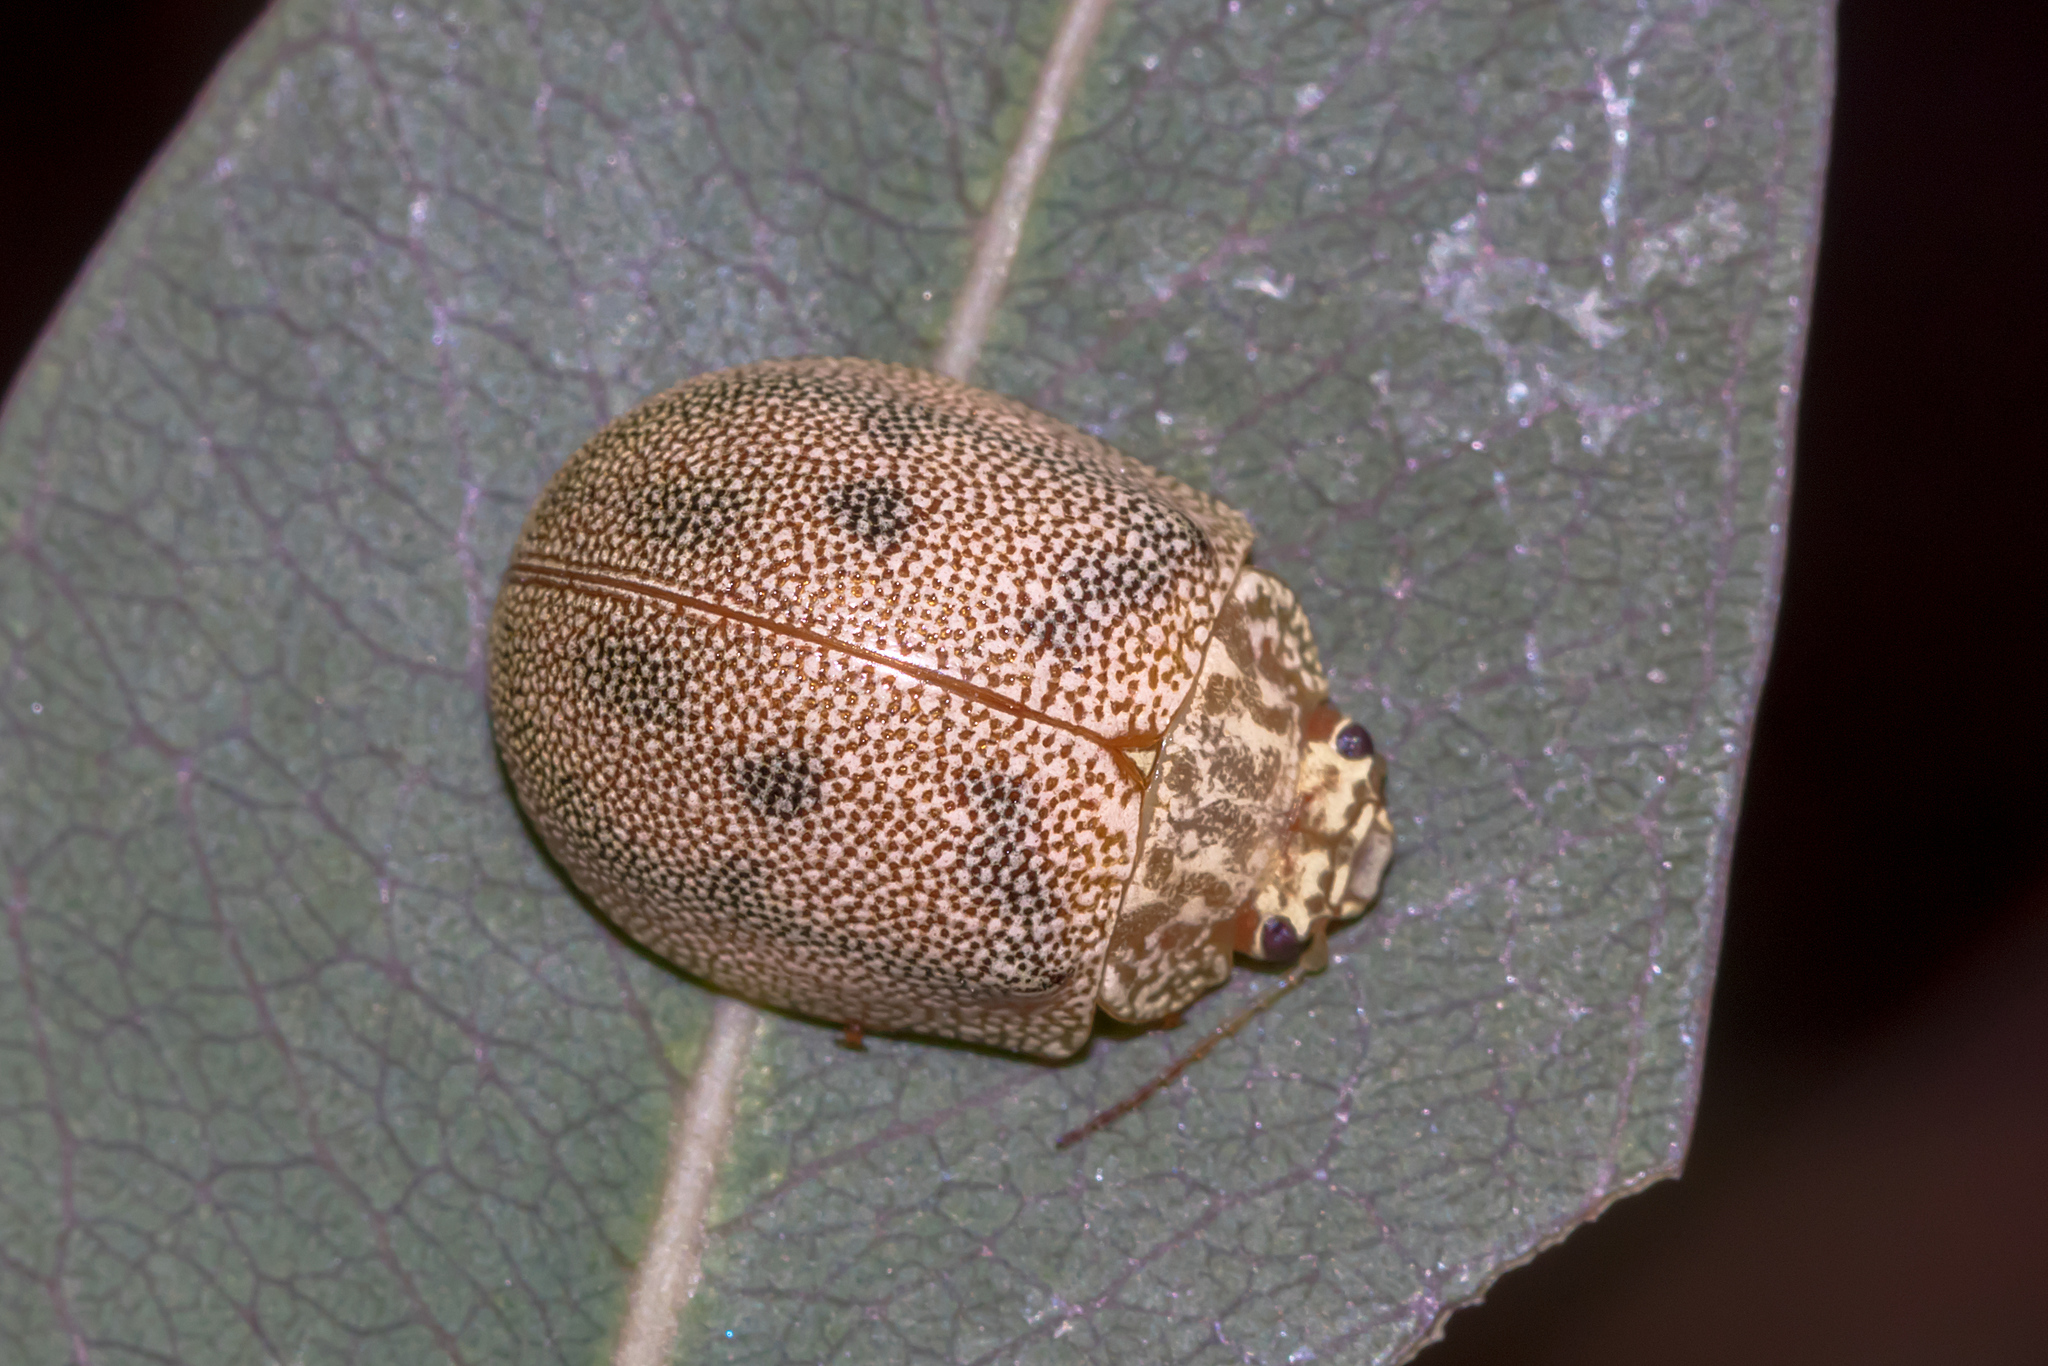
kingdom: Animalia
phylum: Arthropoda
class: Insecta
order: Coleoptera
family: Chrysomelidae
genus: Paropsis
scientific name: Paropsis
